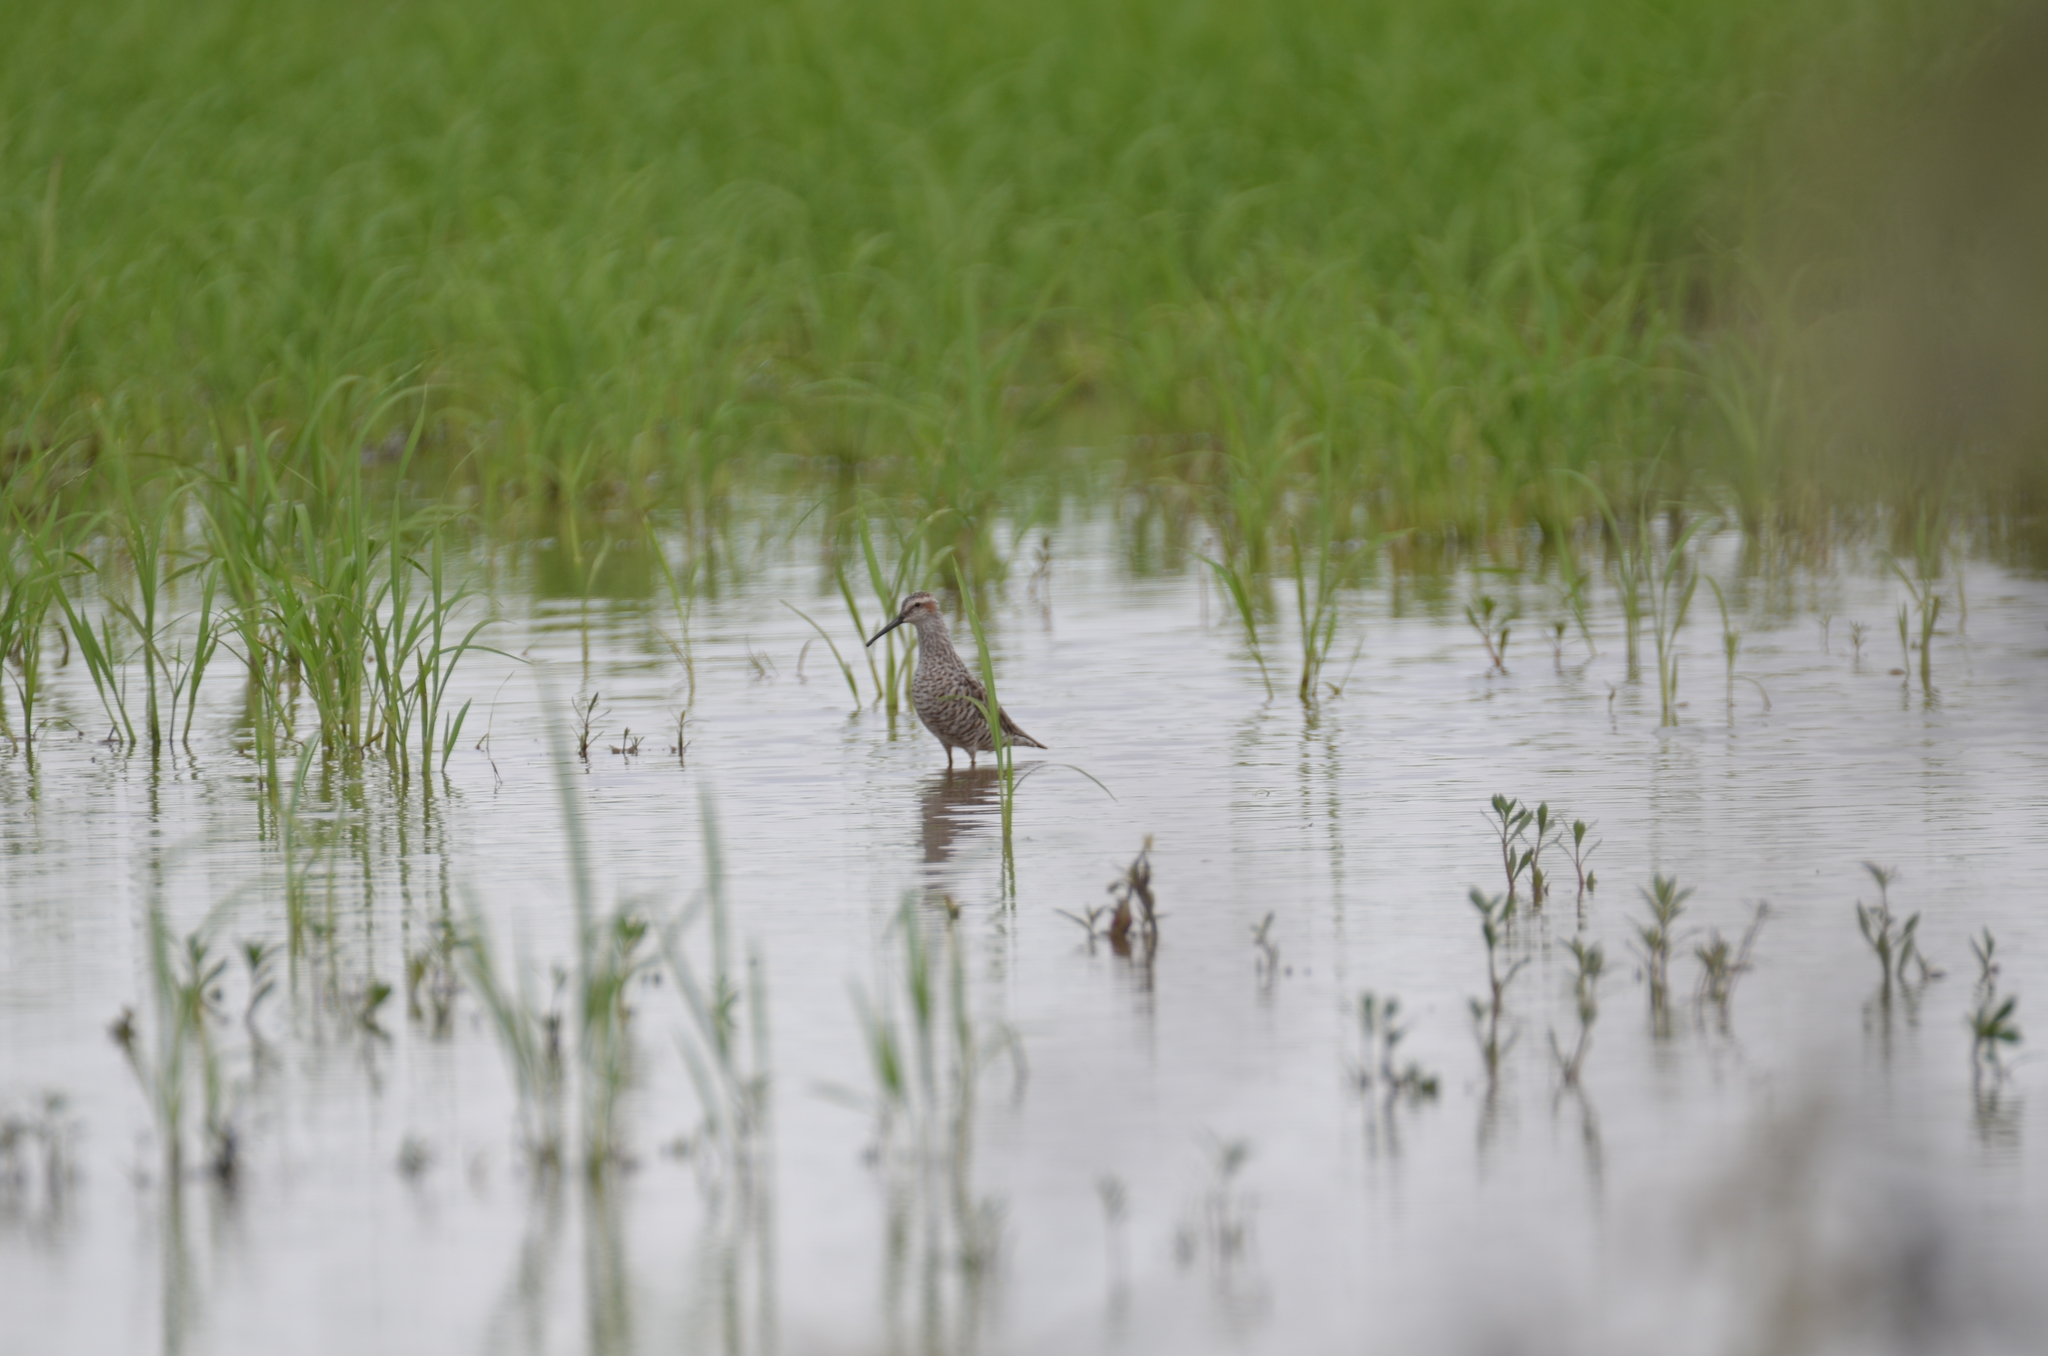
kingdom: Animalia
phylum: Chordata
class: Aves
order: Charadriiformes
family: Scolopacidae
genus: Calidris
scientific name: Calidris himantopus
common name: Stilt sandpiper
